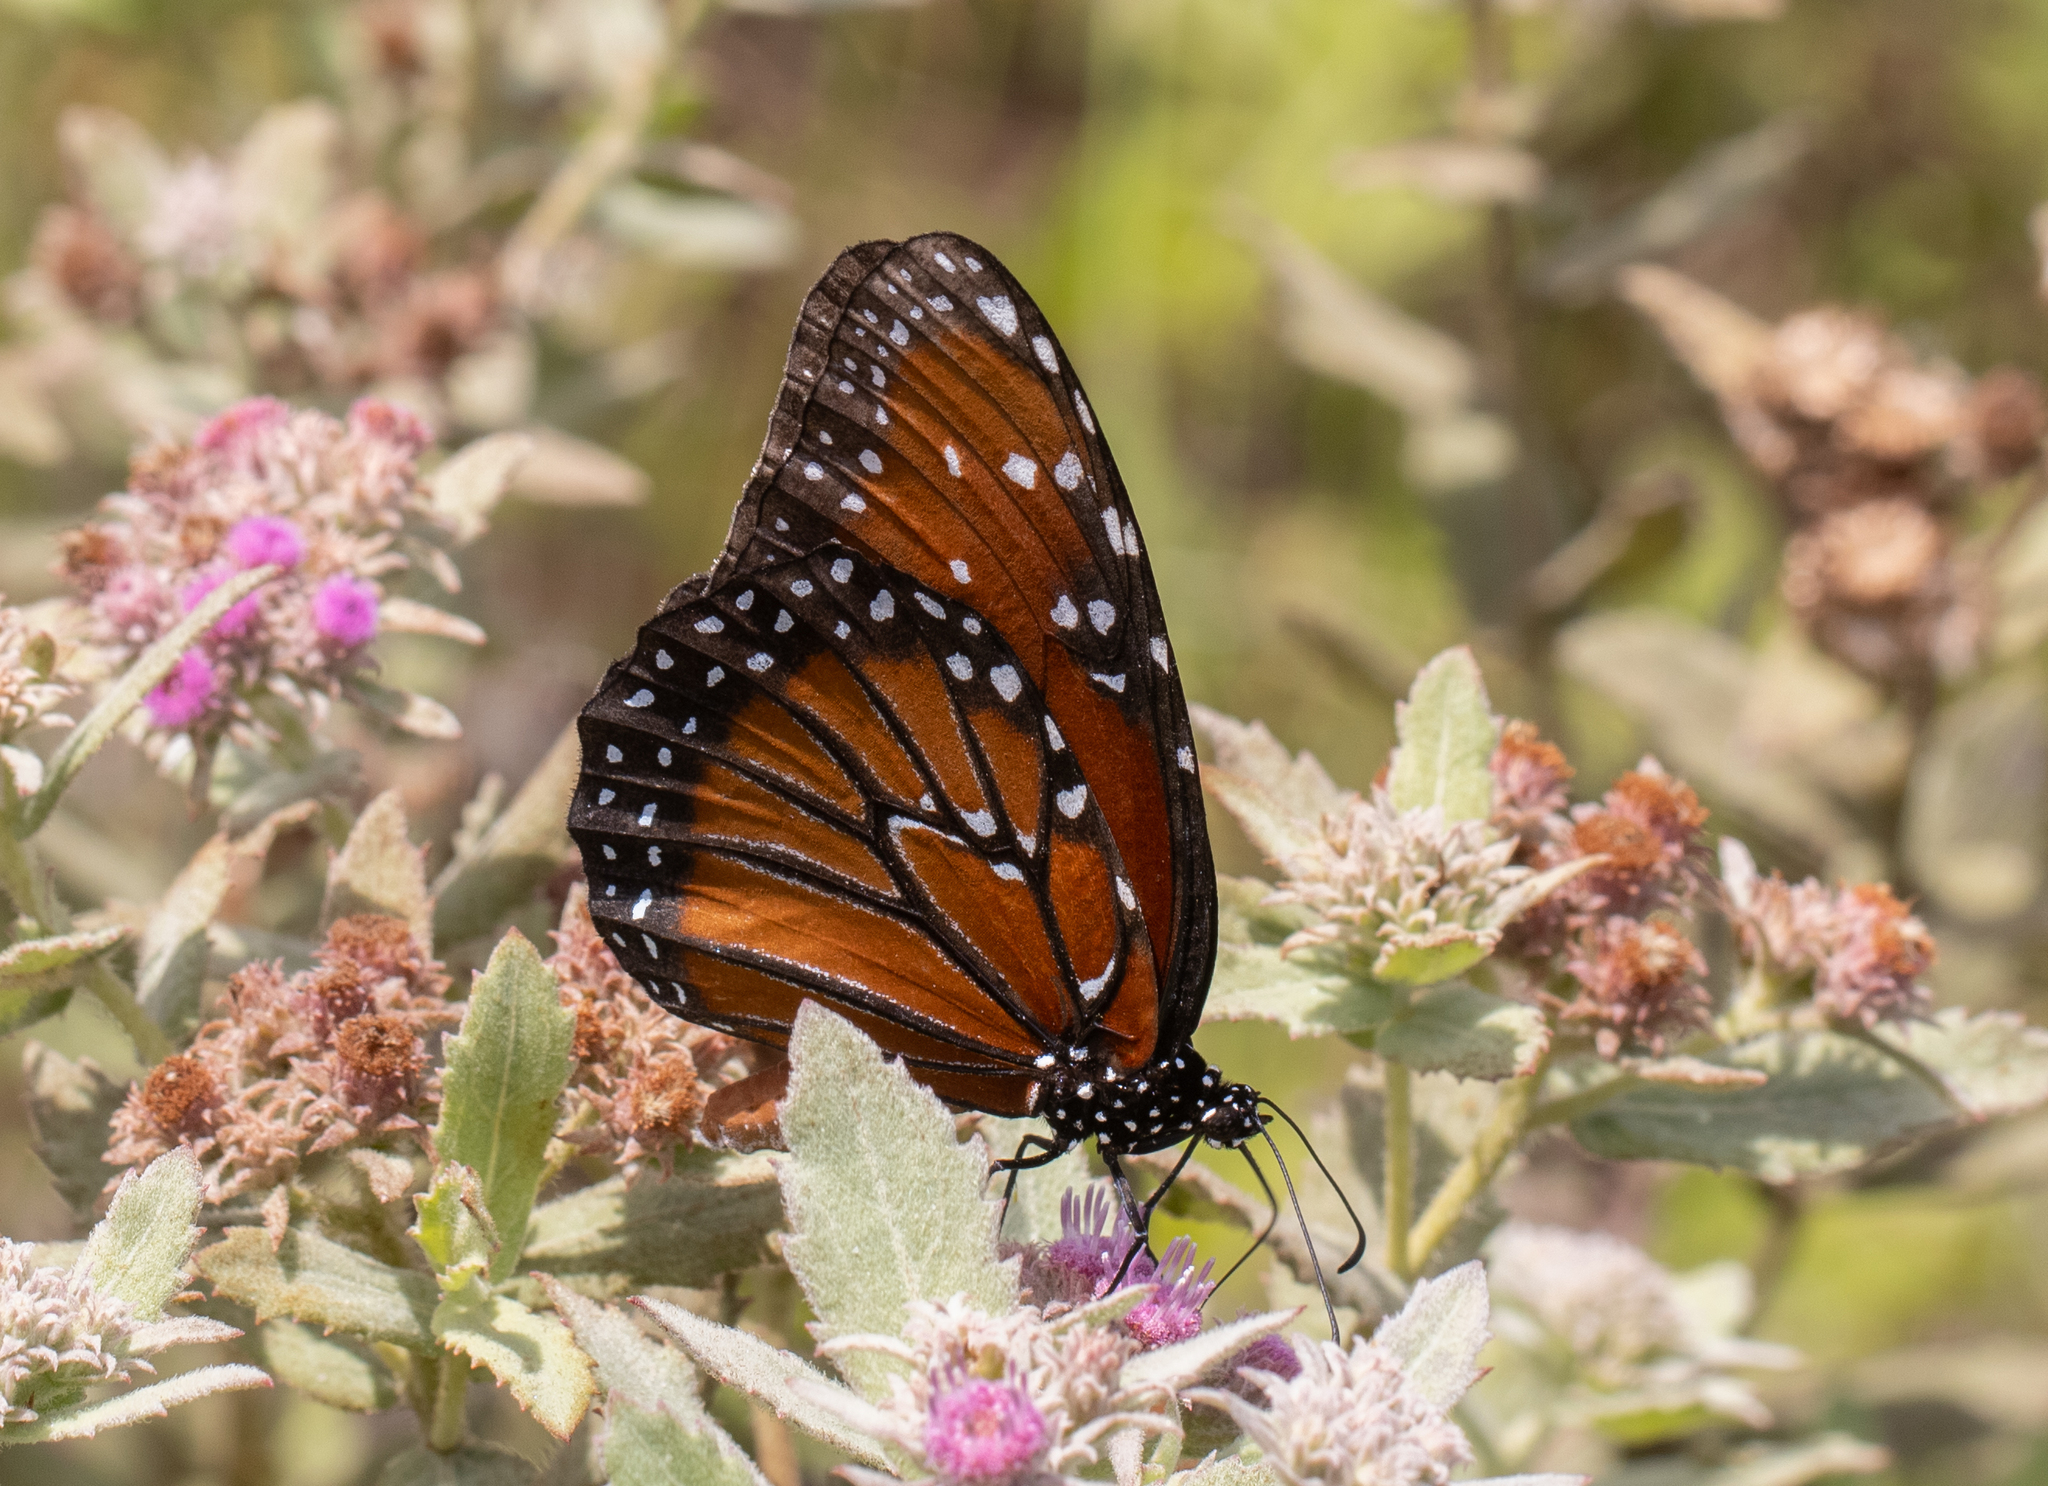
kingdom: Animalia
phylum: Arthropoda
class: Insecta
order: Lepidoptera
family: Nymphalidae
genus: Danaus
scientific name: Danaus gilippus
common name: Queen
